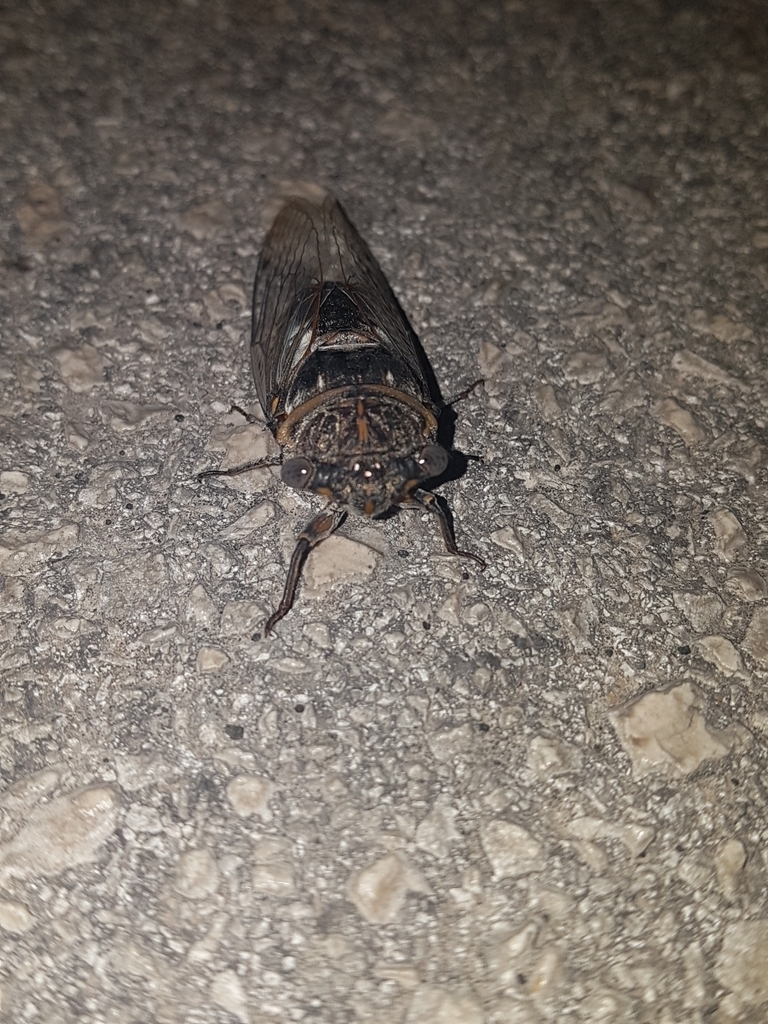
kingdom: Animalia
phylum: Arthropoda
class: Insecta
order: Hemiptera
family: Cicadidae
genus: Lyristes
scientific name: Lyristes plebejus
